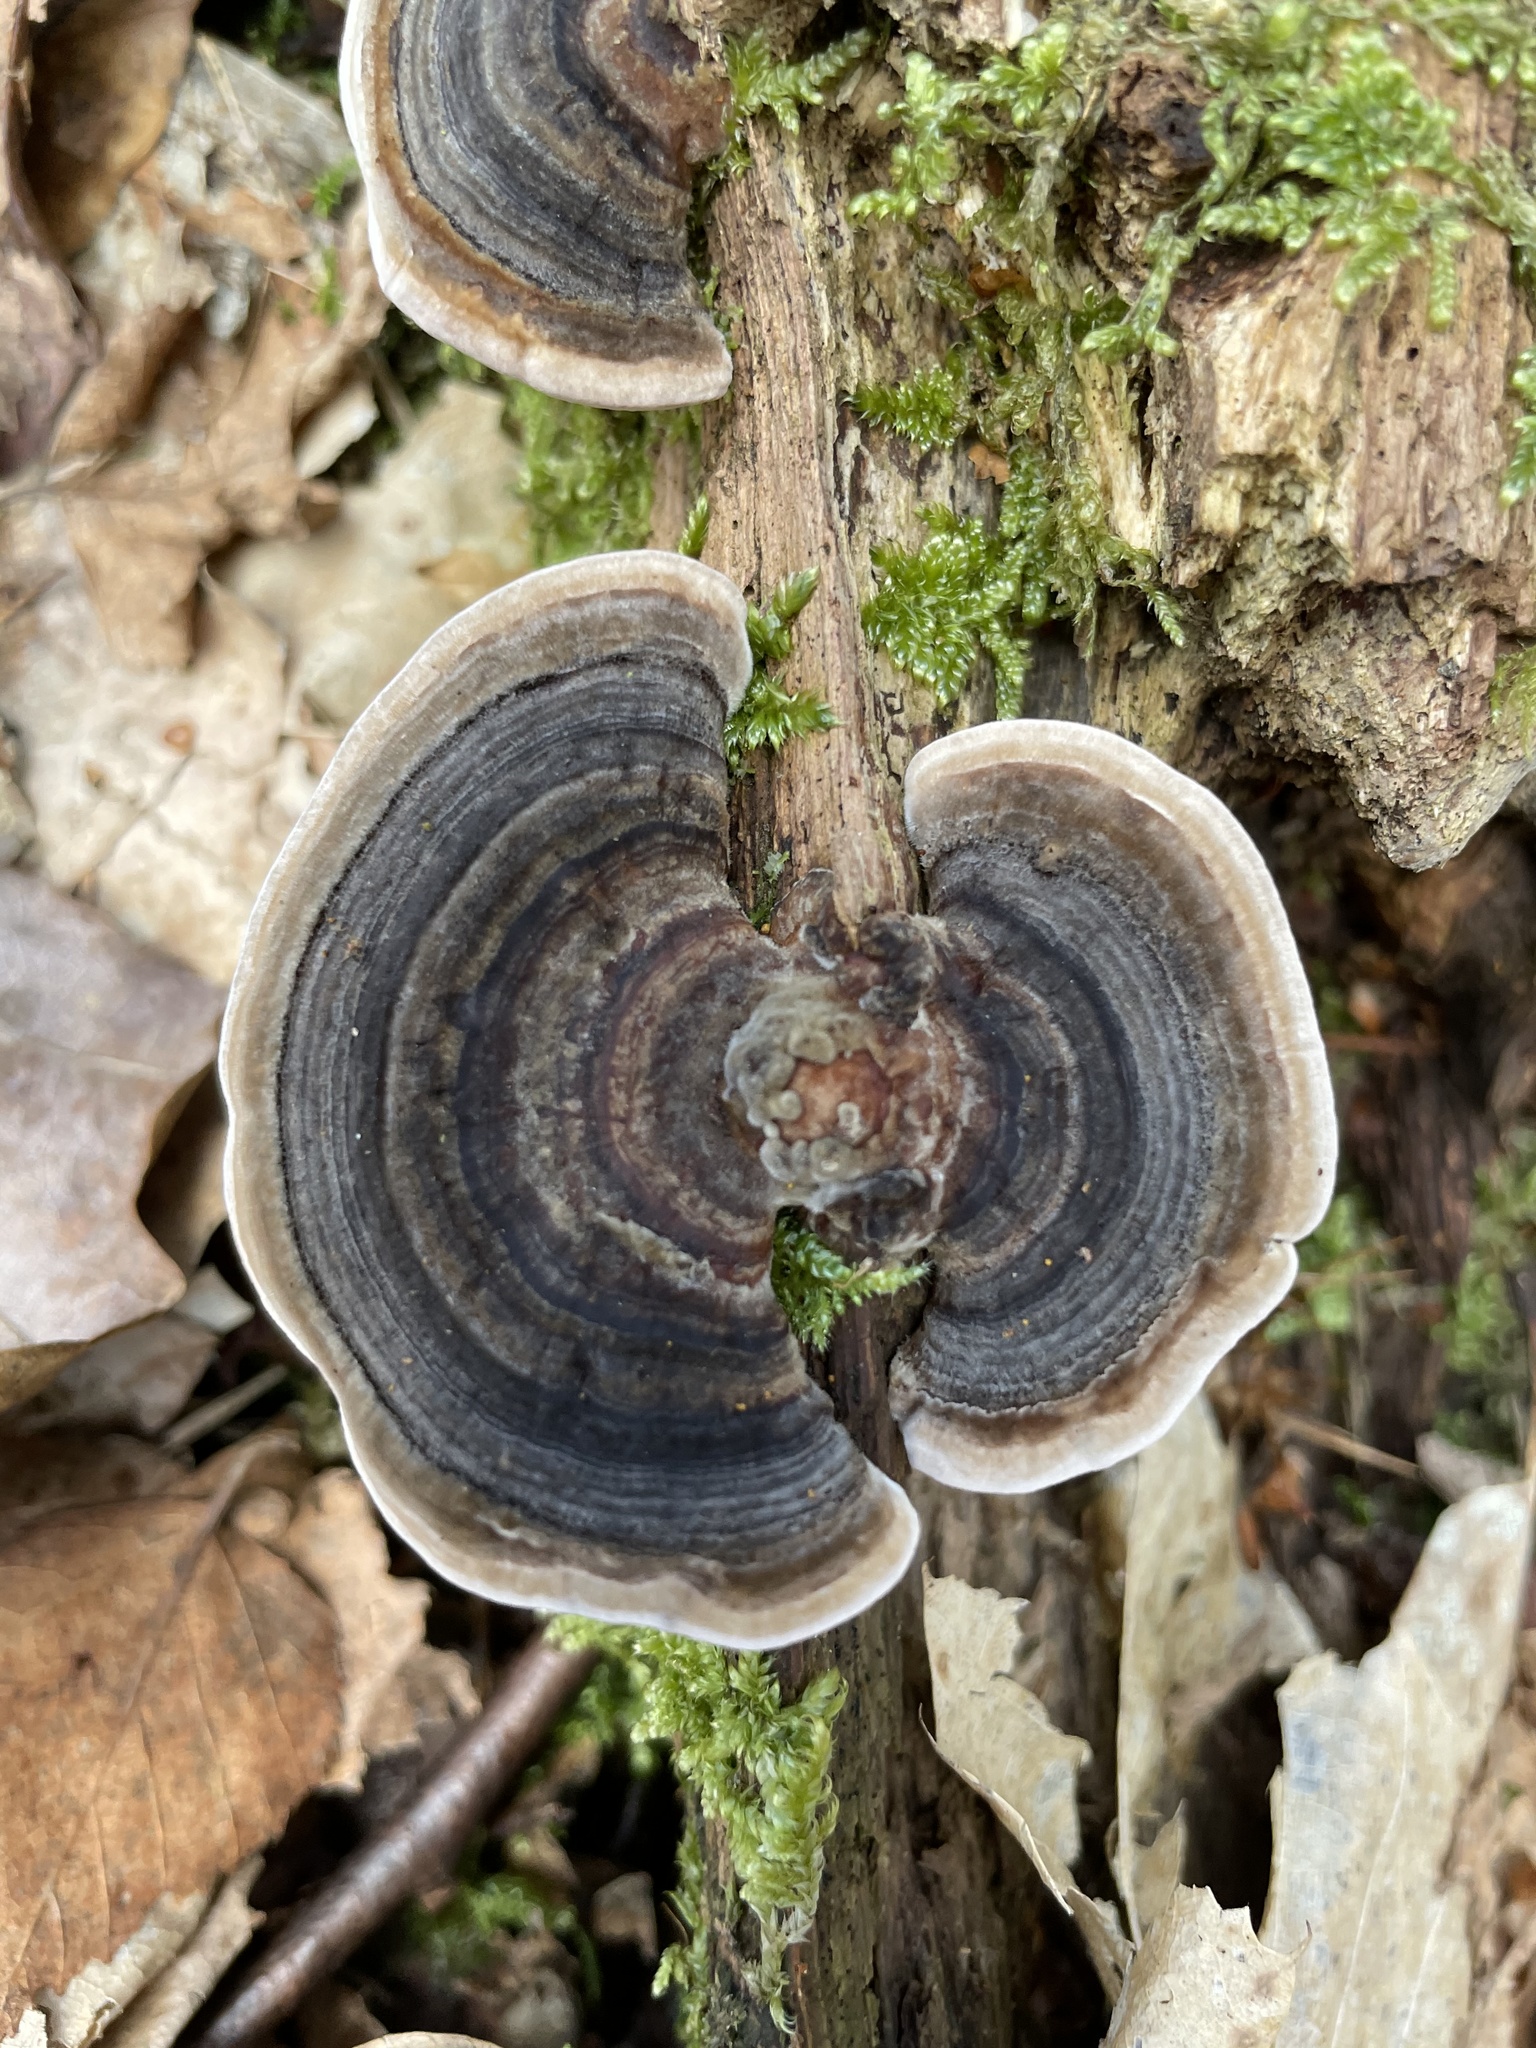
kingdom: Fungi
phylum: Basidiomycota
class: Agaricomycetes
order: Polyporales
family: Polyporaceae
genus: Trametes
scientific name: Trametes versicolor
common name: Turkeytail
